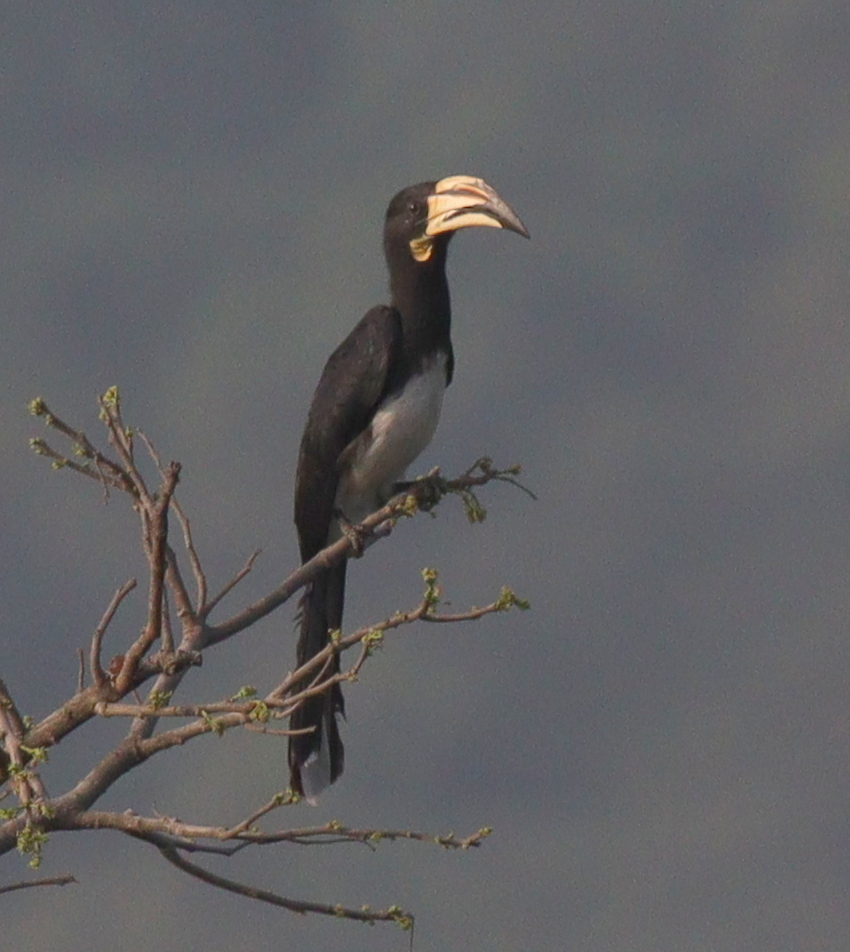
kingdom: Animalia
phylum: Chordata
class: Aves
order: Bucerotiformes
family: Bucerotidae
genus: Lophoceros
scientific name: Lophoceros fasciatus
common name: African pied hornbill
